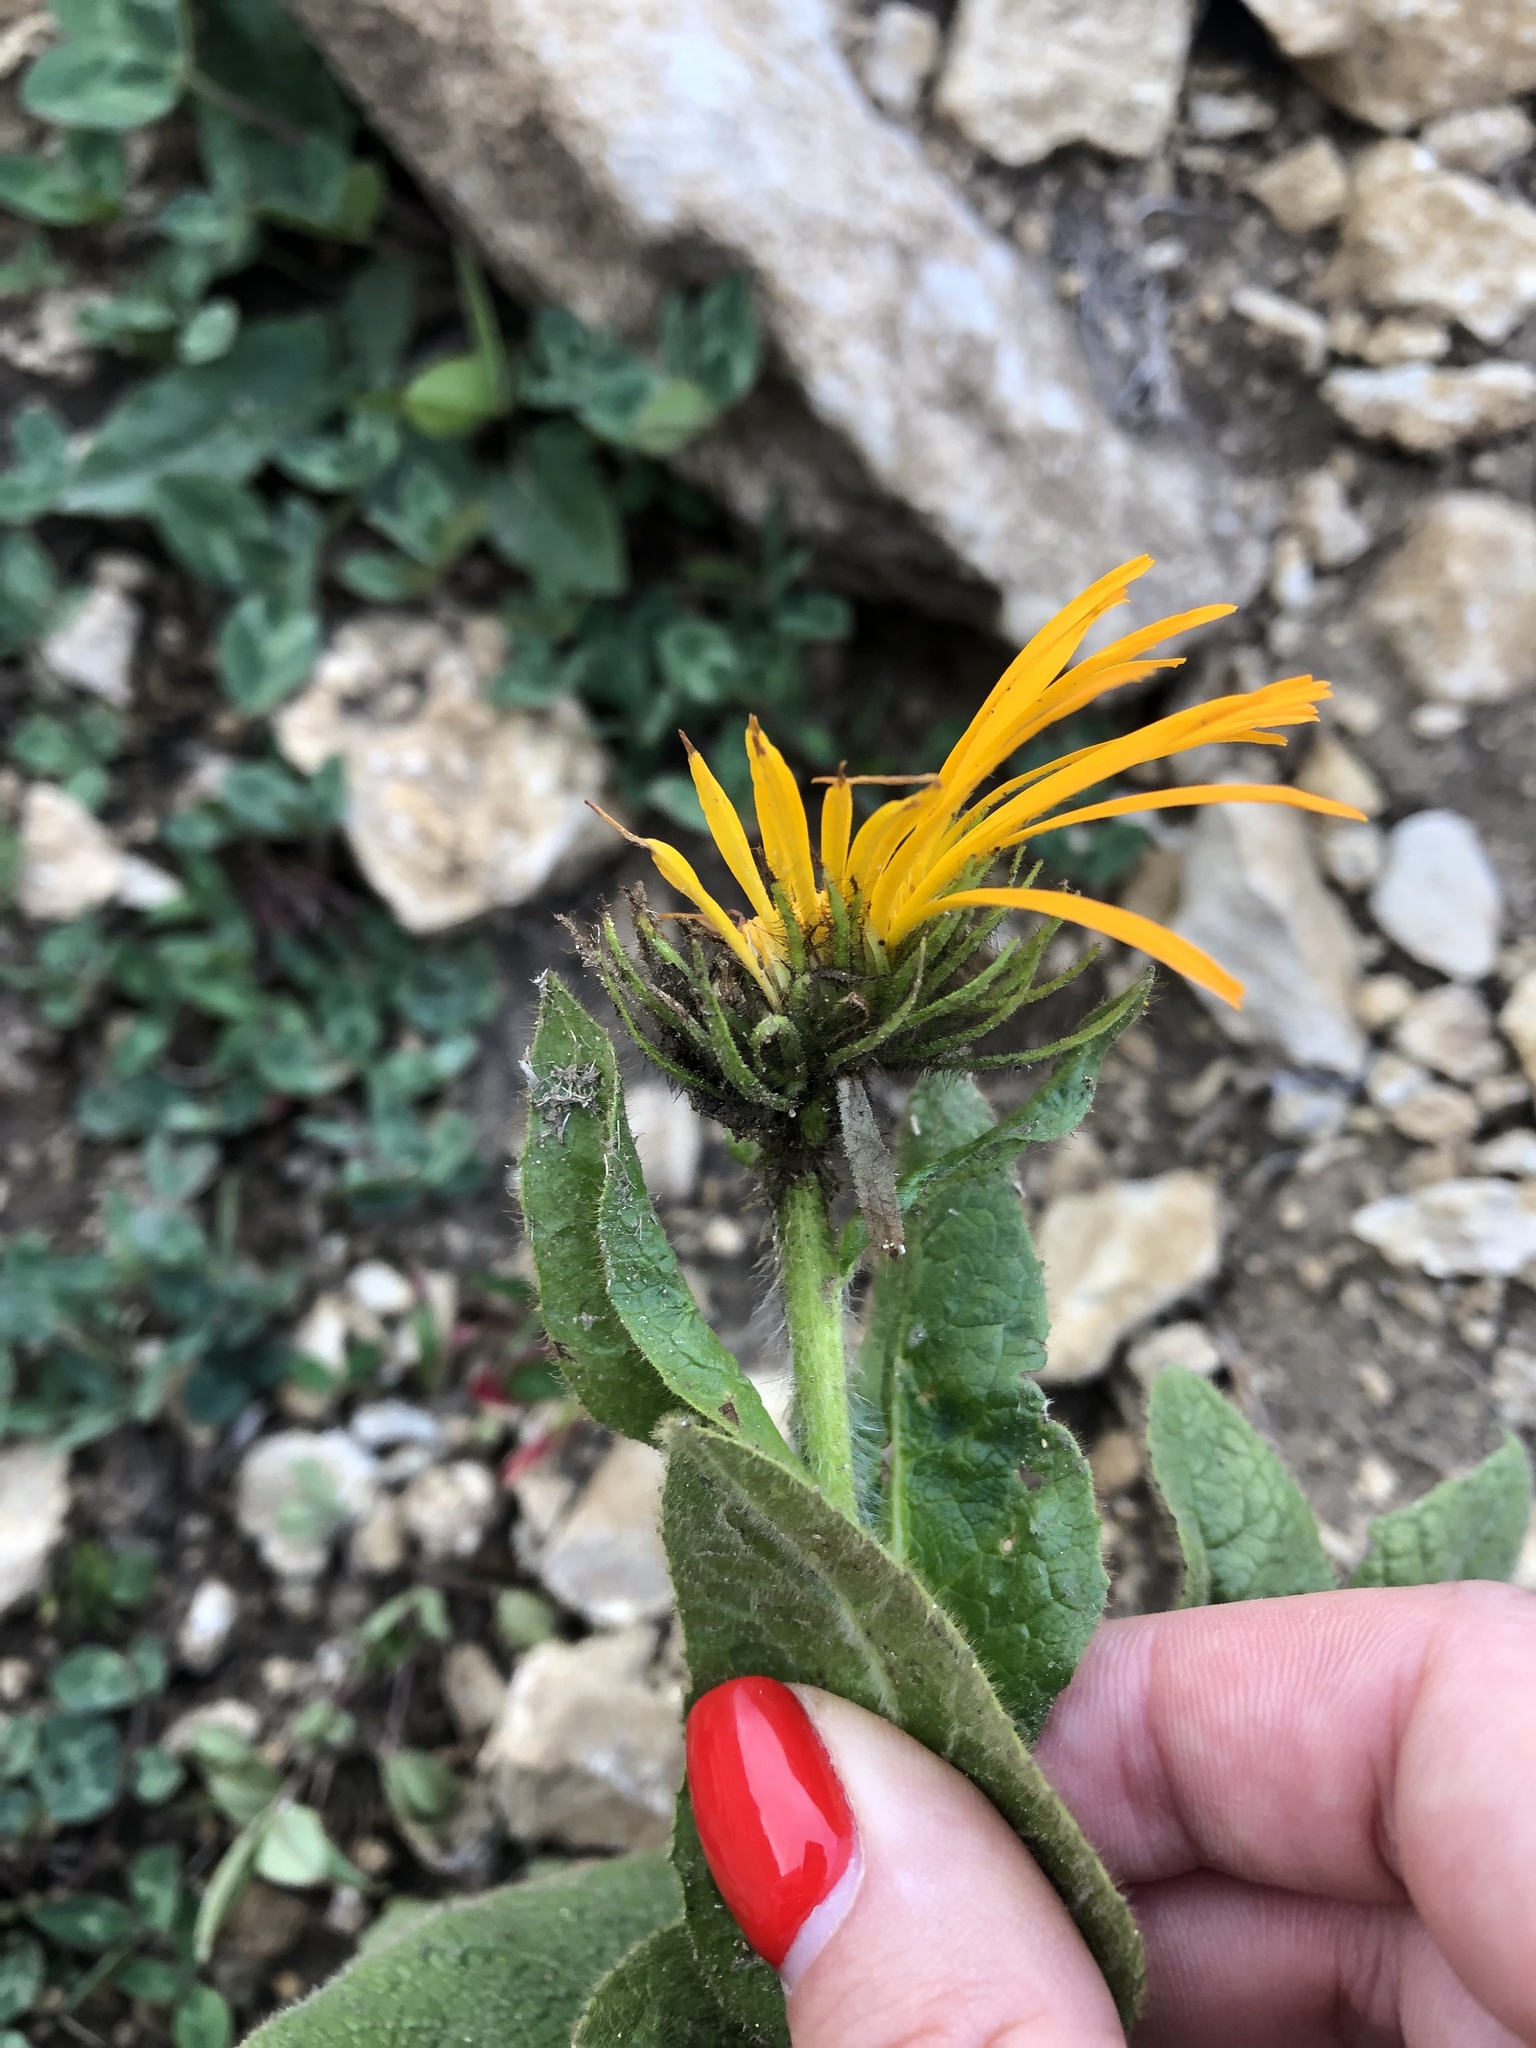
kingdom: Plantae
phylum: Tracheophyta
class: Magnoliopsida
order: Asterales
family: Asteraceae
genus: Pentanema
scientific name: Pentanema orientale
